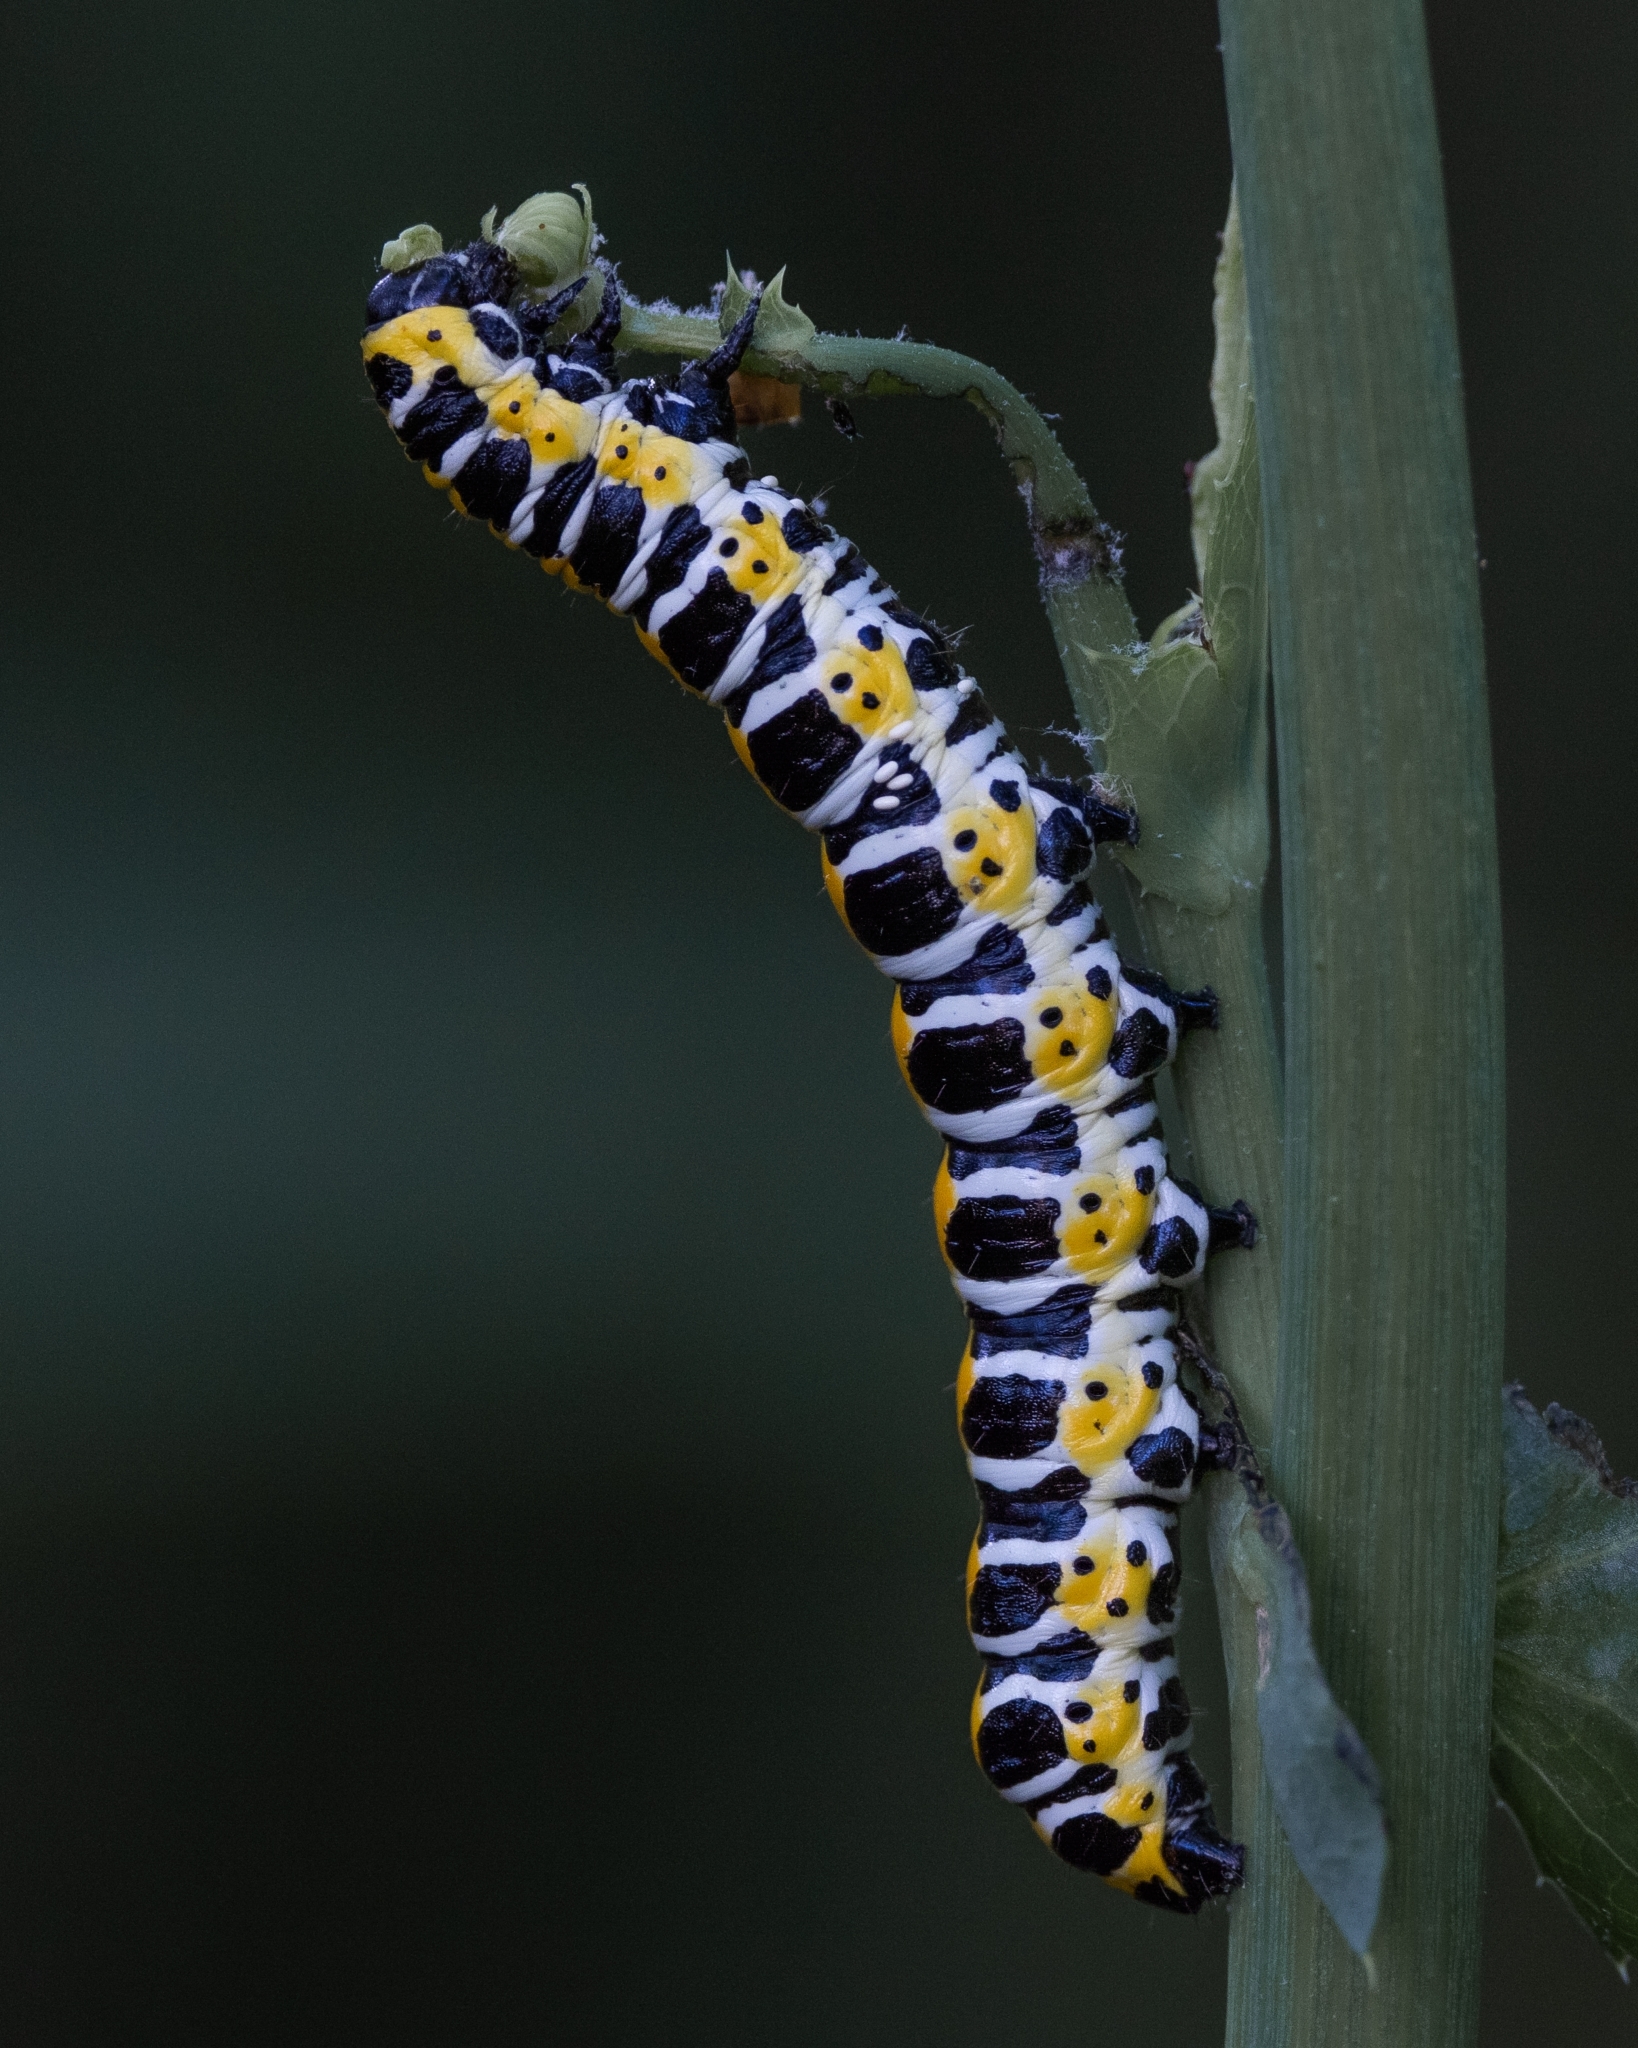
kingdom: Animalia
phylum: Arthropoda
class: Insecta
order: Lepidoptera
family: Noctuidae
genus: Cucullia
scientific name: Cucullia lactucae
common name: Lettuce shark
